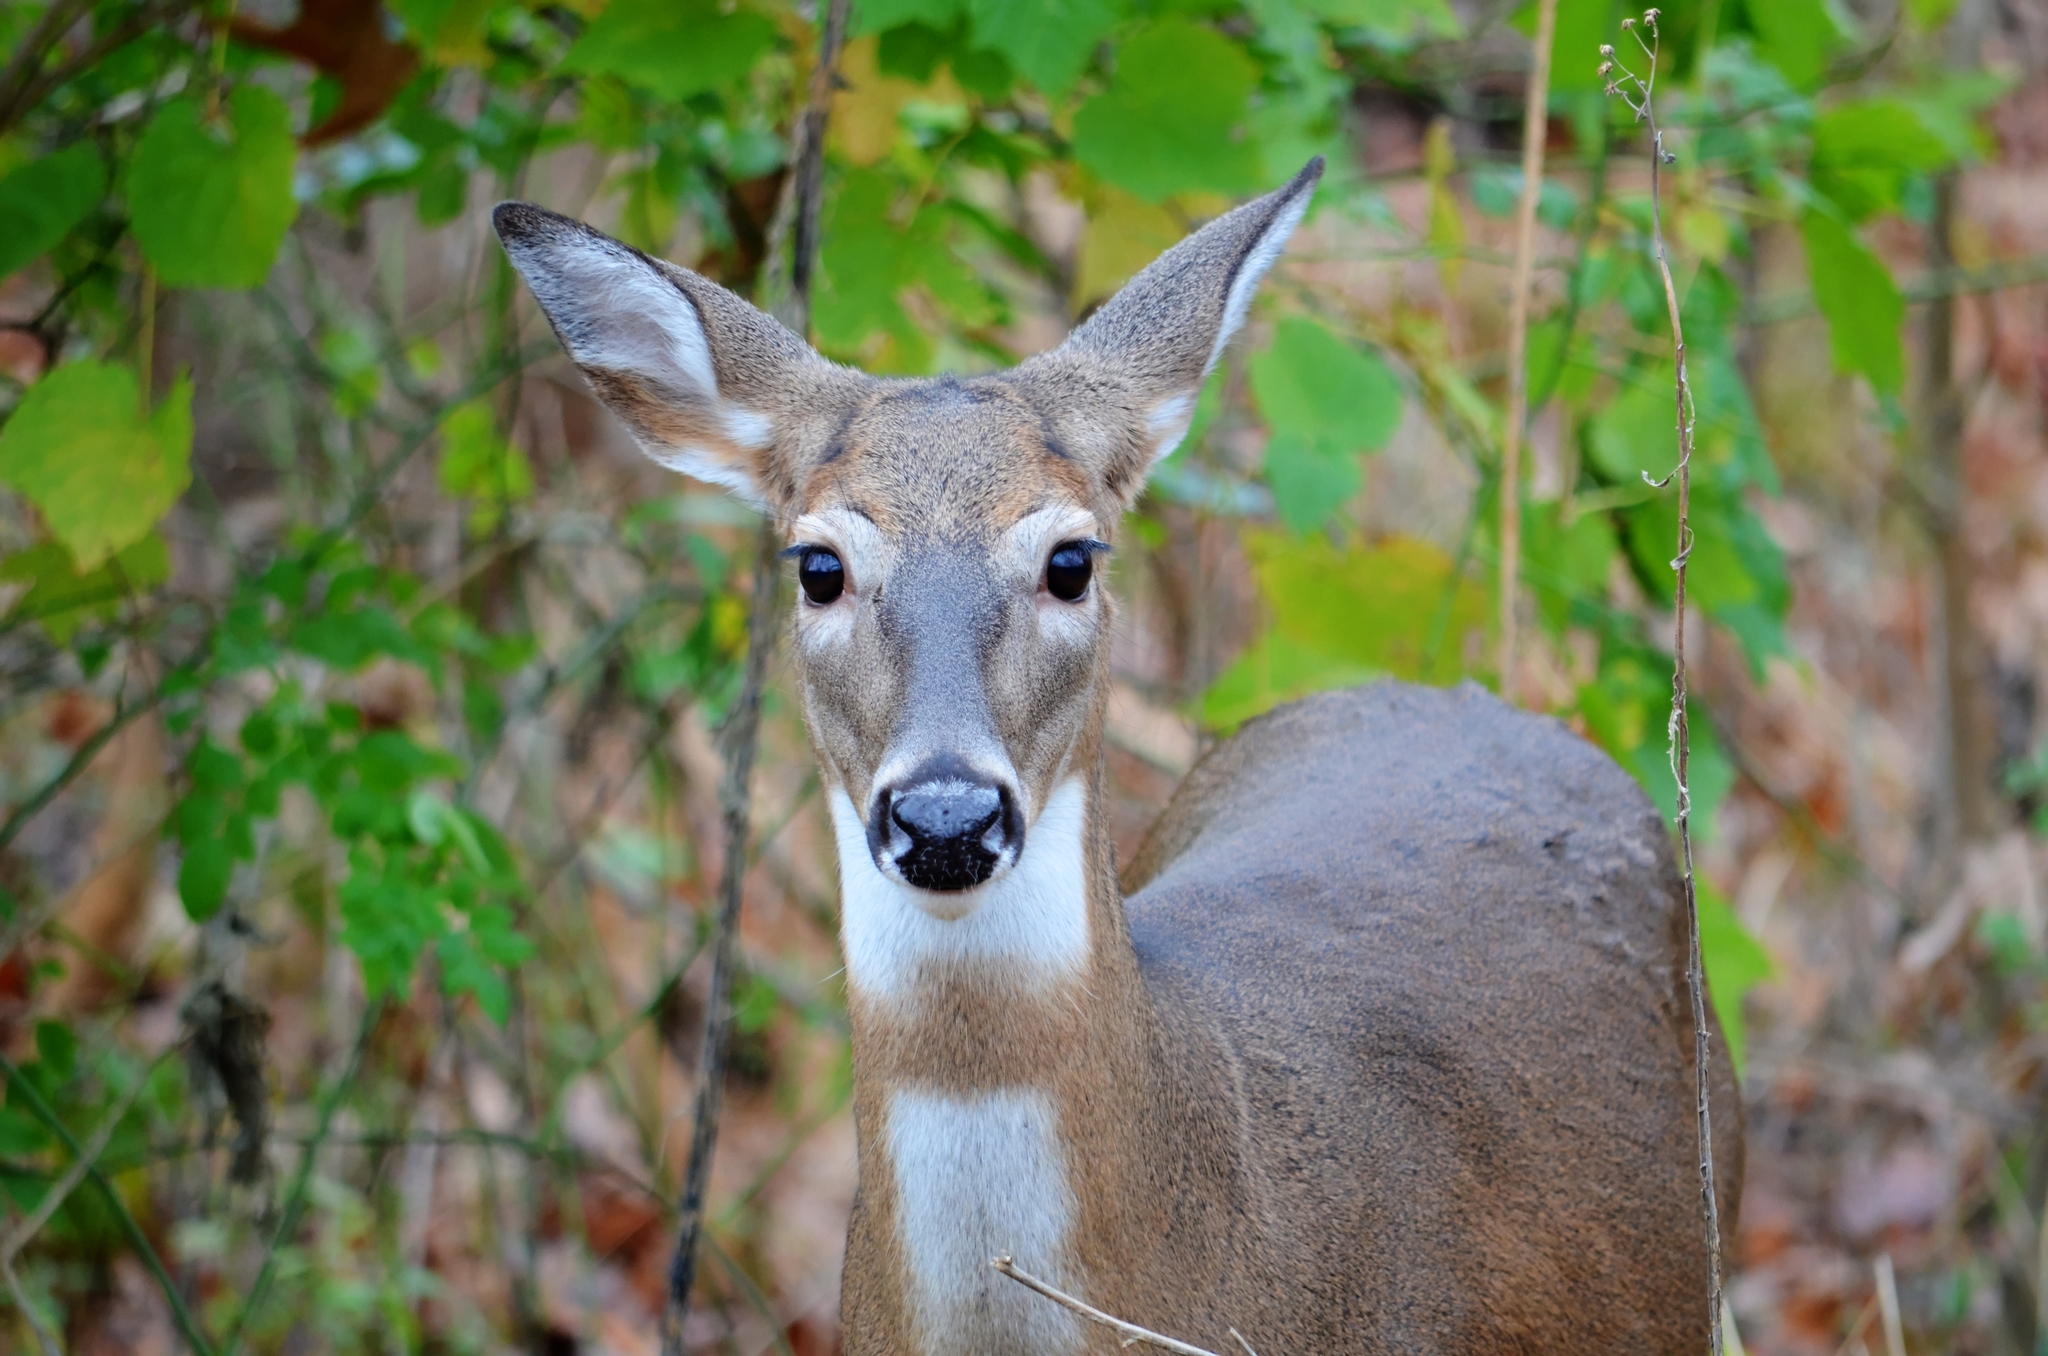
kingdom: Animalia
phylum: Chordata
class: Mammalia
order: Artiodactyla
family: Cervidae
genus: Odocoileus
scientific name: Odocoileus virginianus
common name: White-tailed deer
